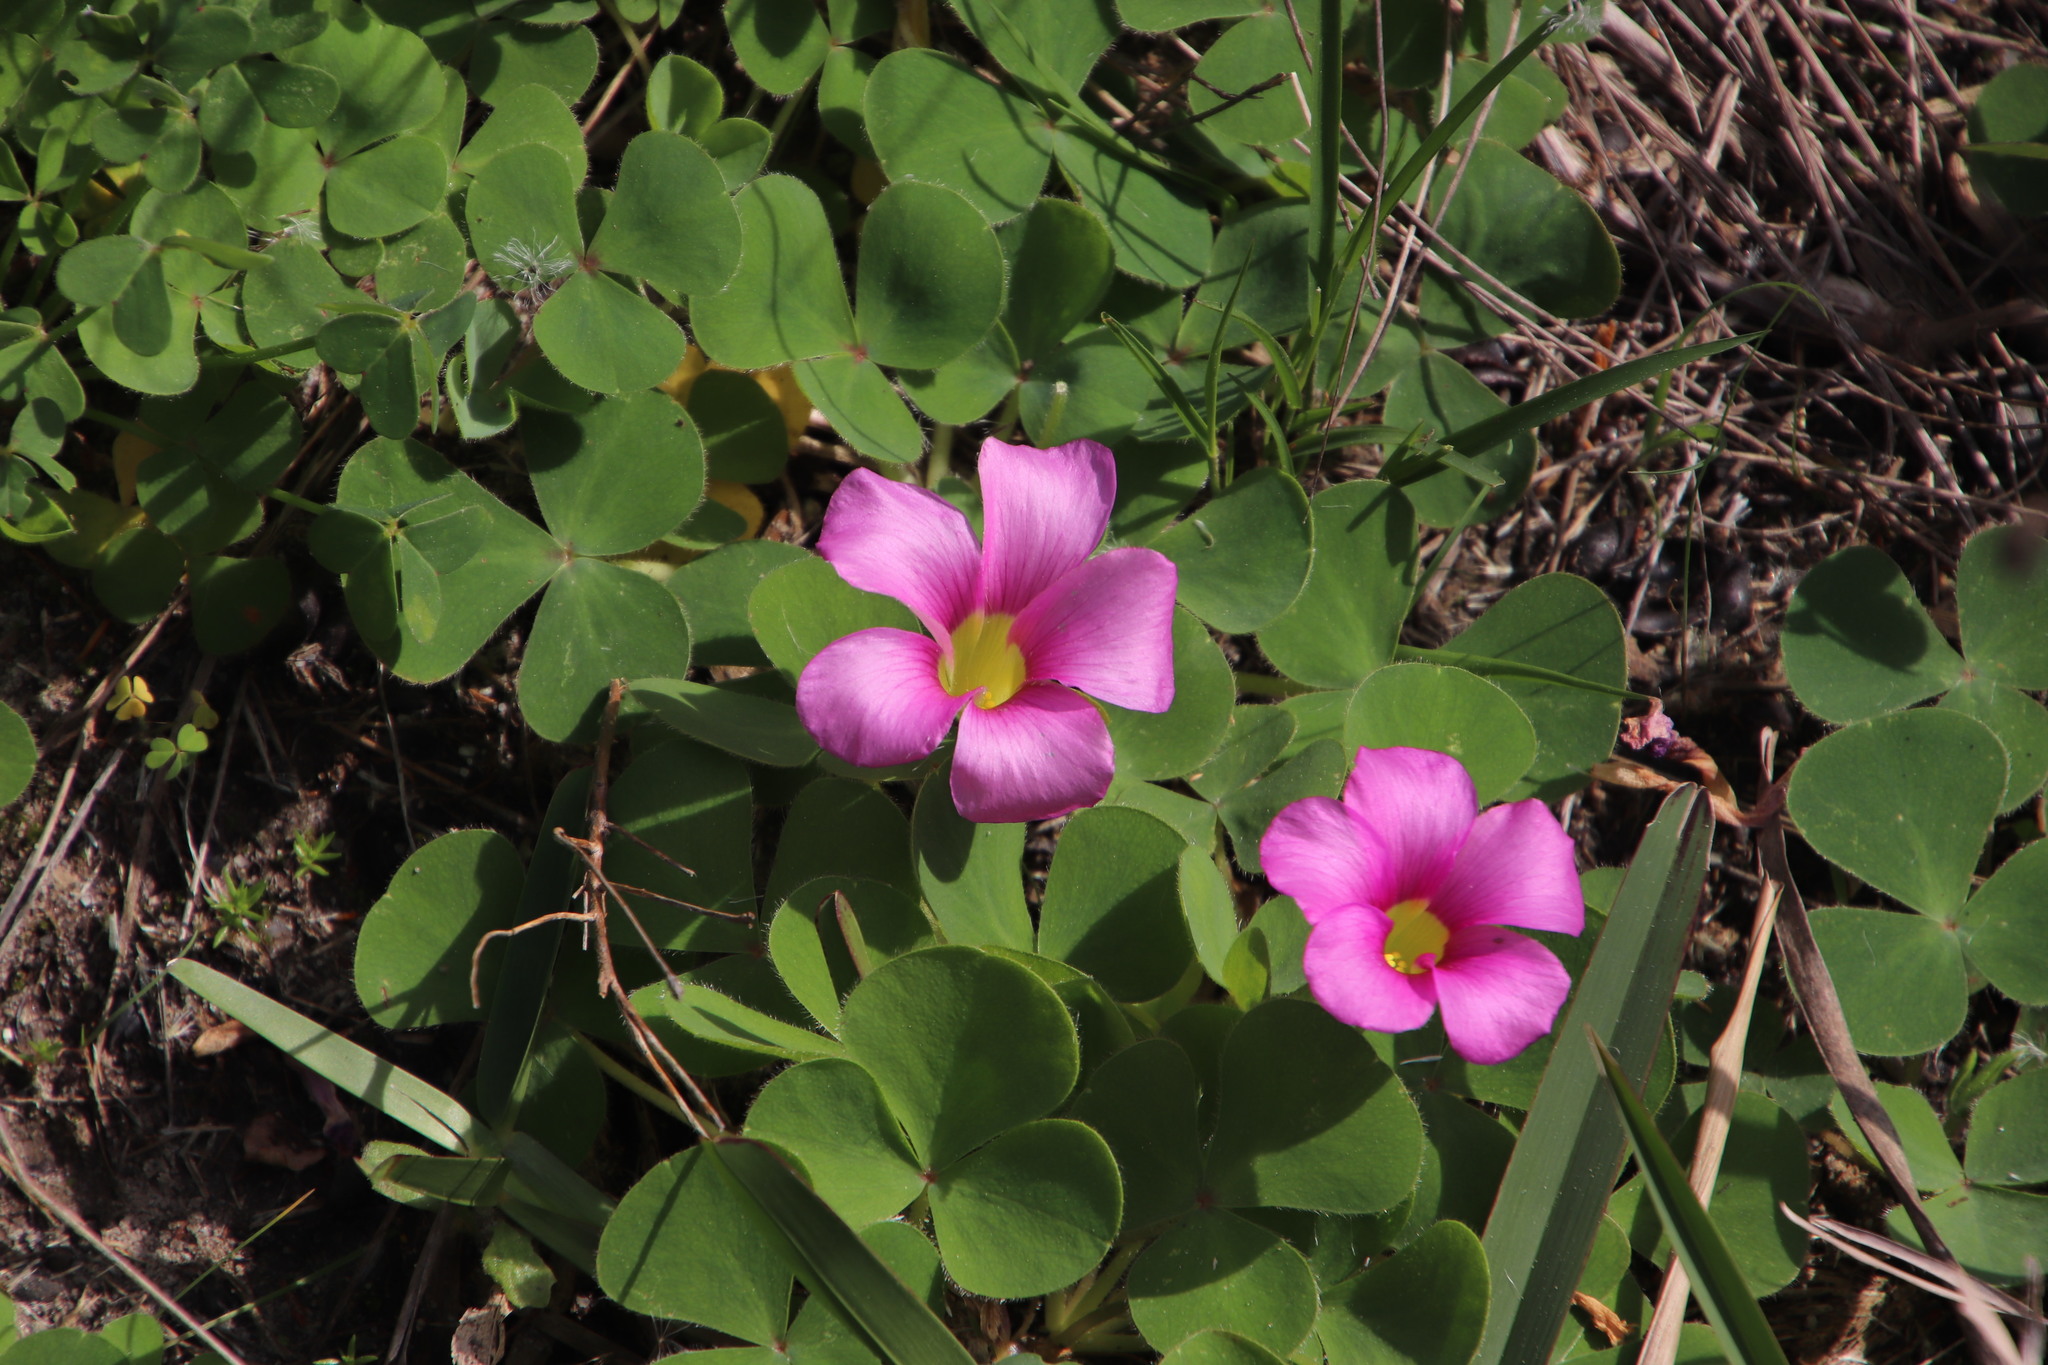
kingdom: Plantae
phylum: Tracheophyta
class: Magnoliopsida
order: Oxalidales
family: Oxalidaceae
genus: Oxalis
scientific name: Oxalis purpurea
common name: Purple woodsorrel
